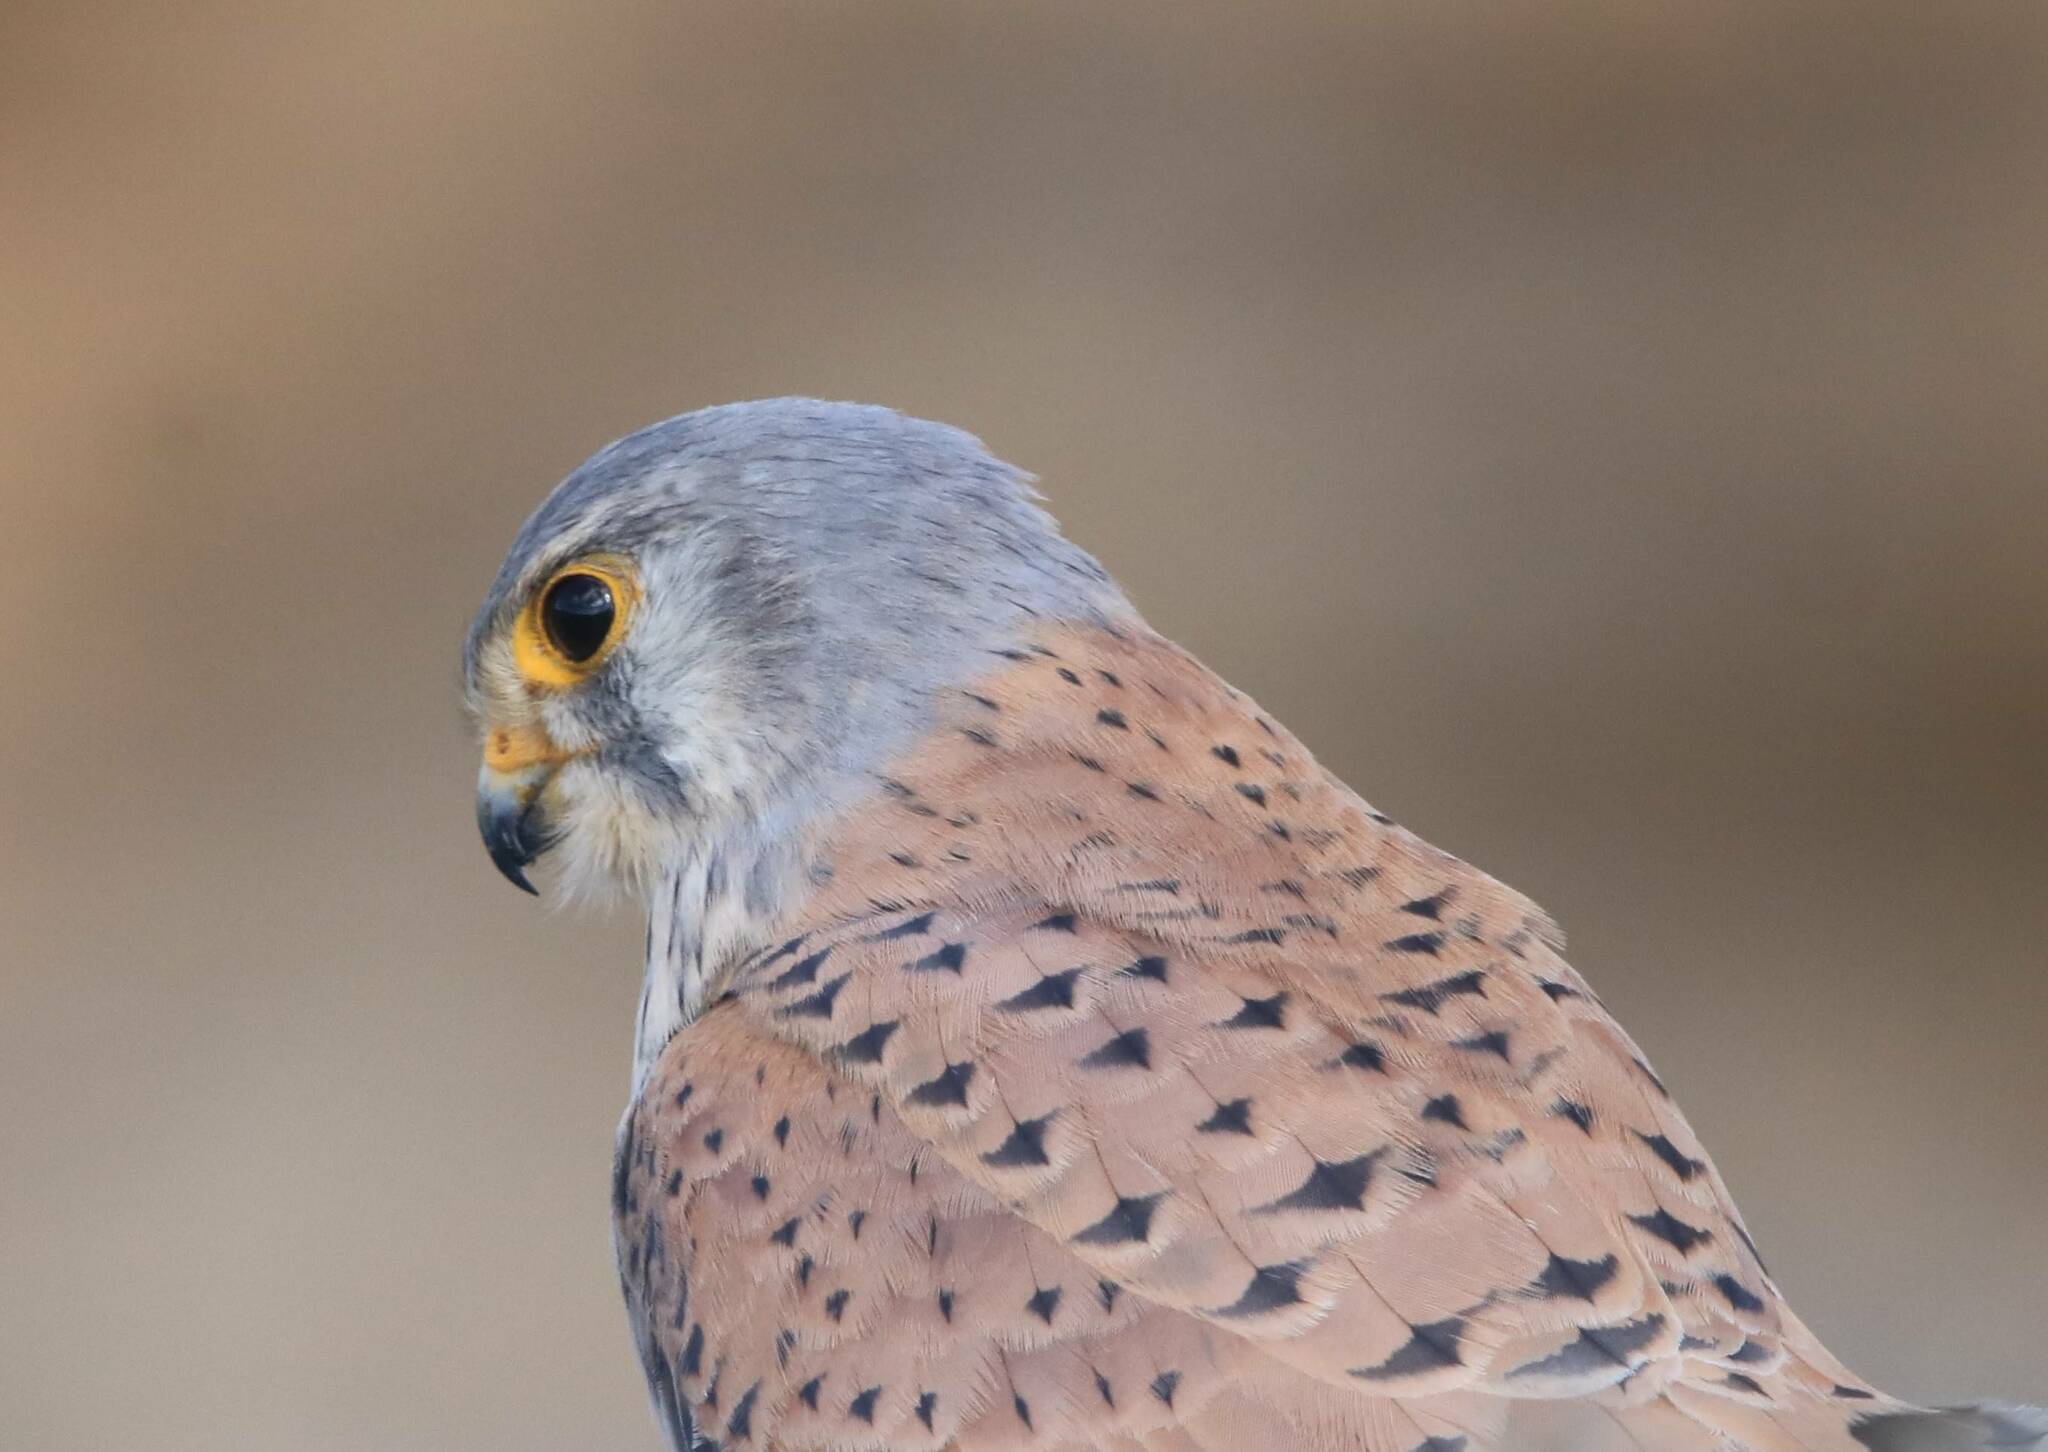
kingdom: Animalia
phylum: Chordata
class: Aves
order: Falconiformes
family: Falconidae
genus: Falco
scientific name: Falco tinnunculus
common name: Common kestrel
